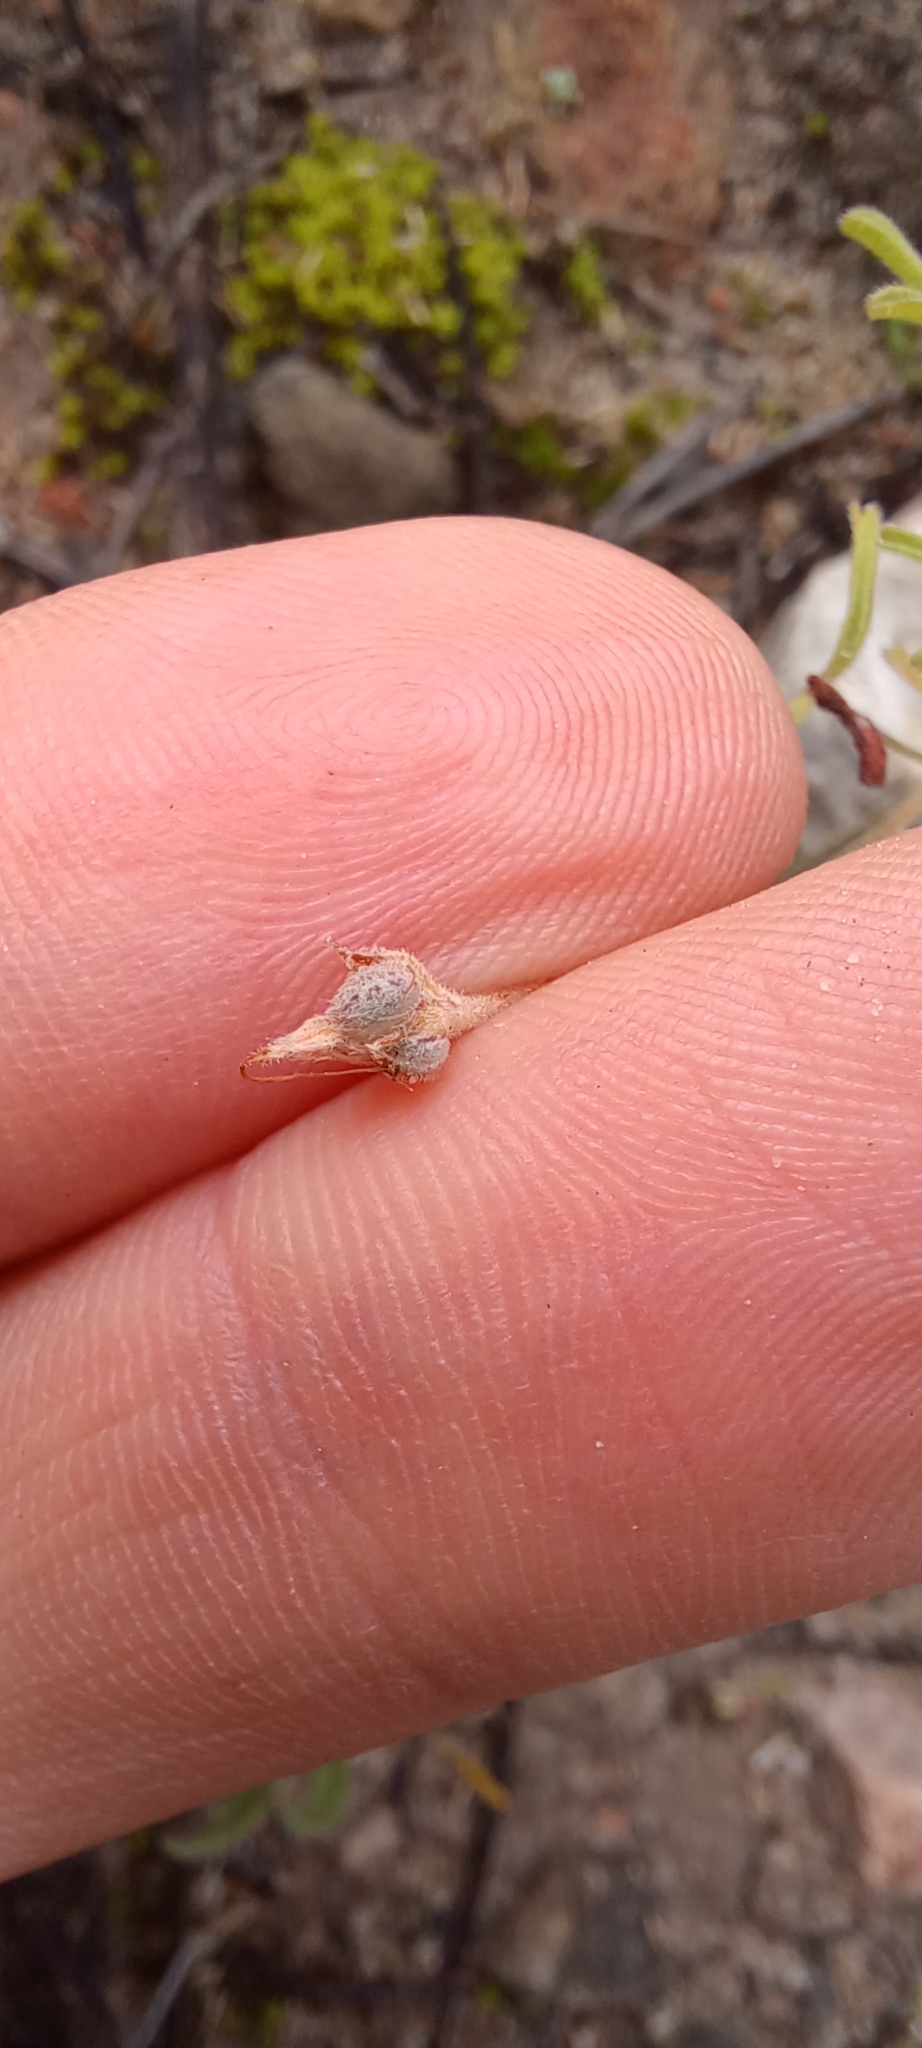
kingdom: Plantae
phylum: Tracheophyta
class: Magnoliopsida
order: Oxalidales
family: Oxalidaceae
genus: Oxalis
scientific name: Oxalis ciliaris
